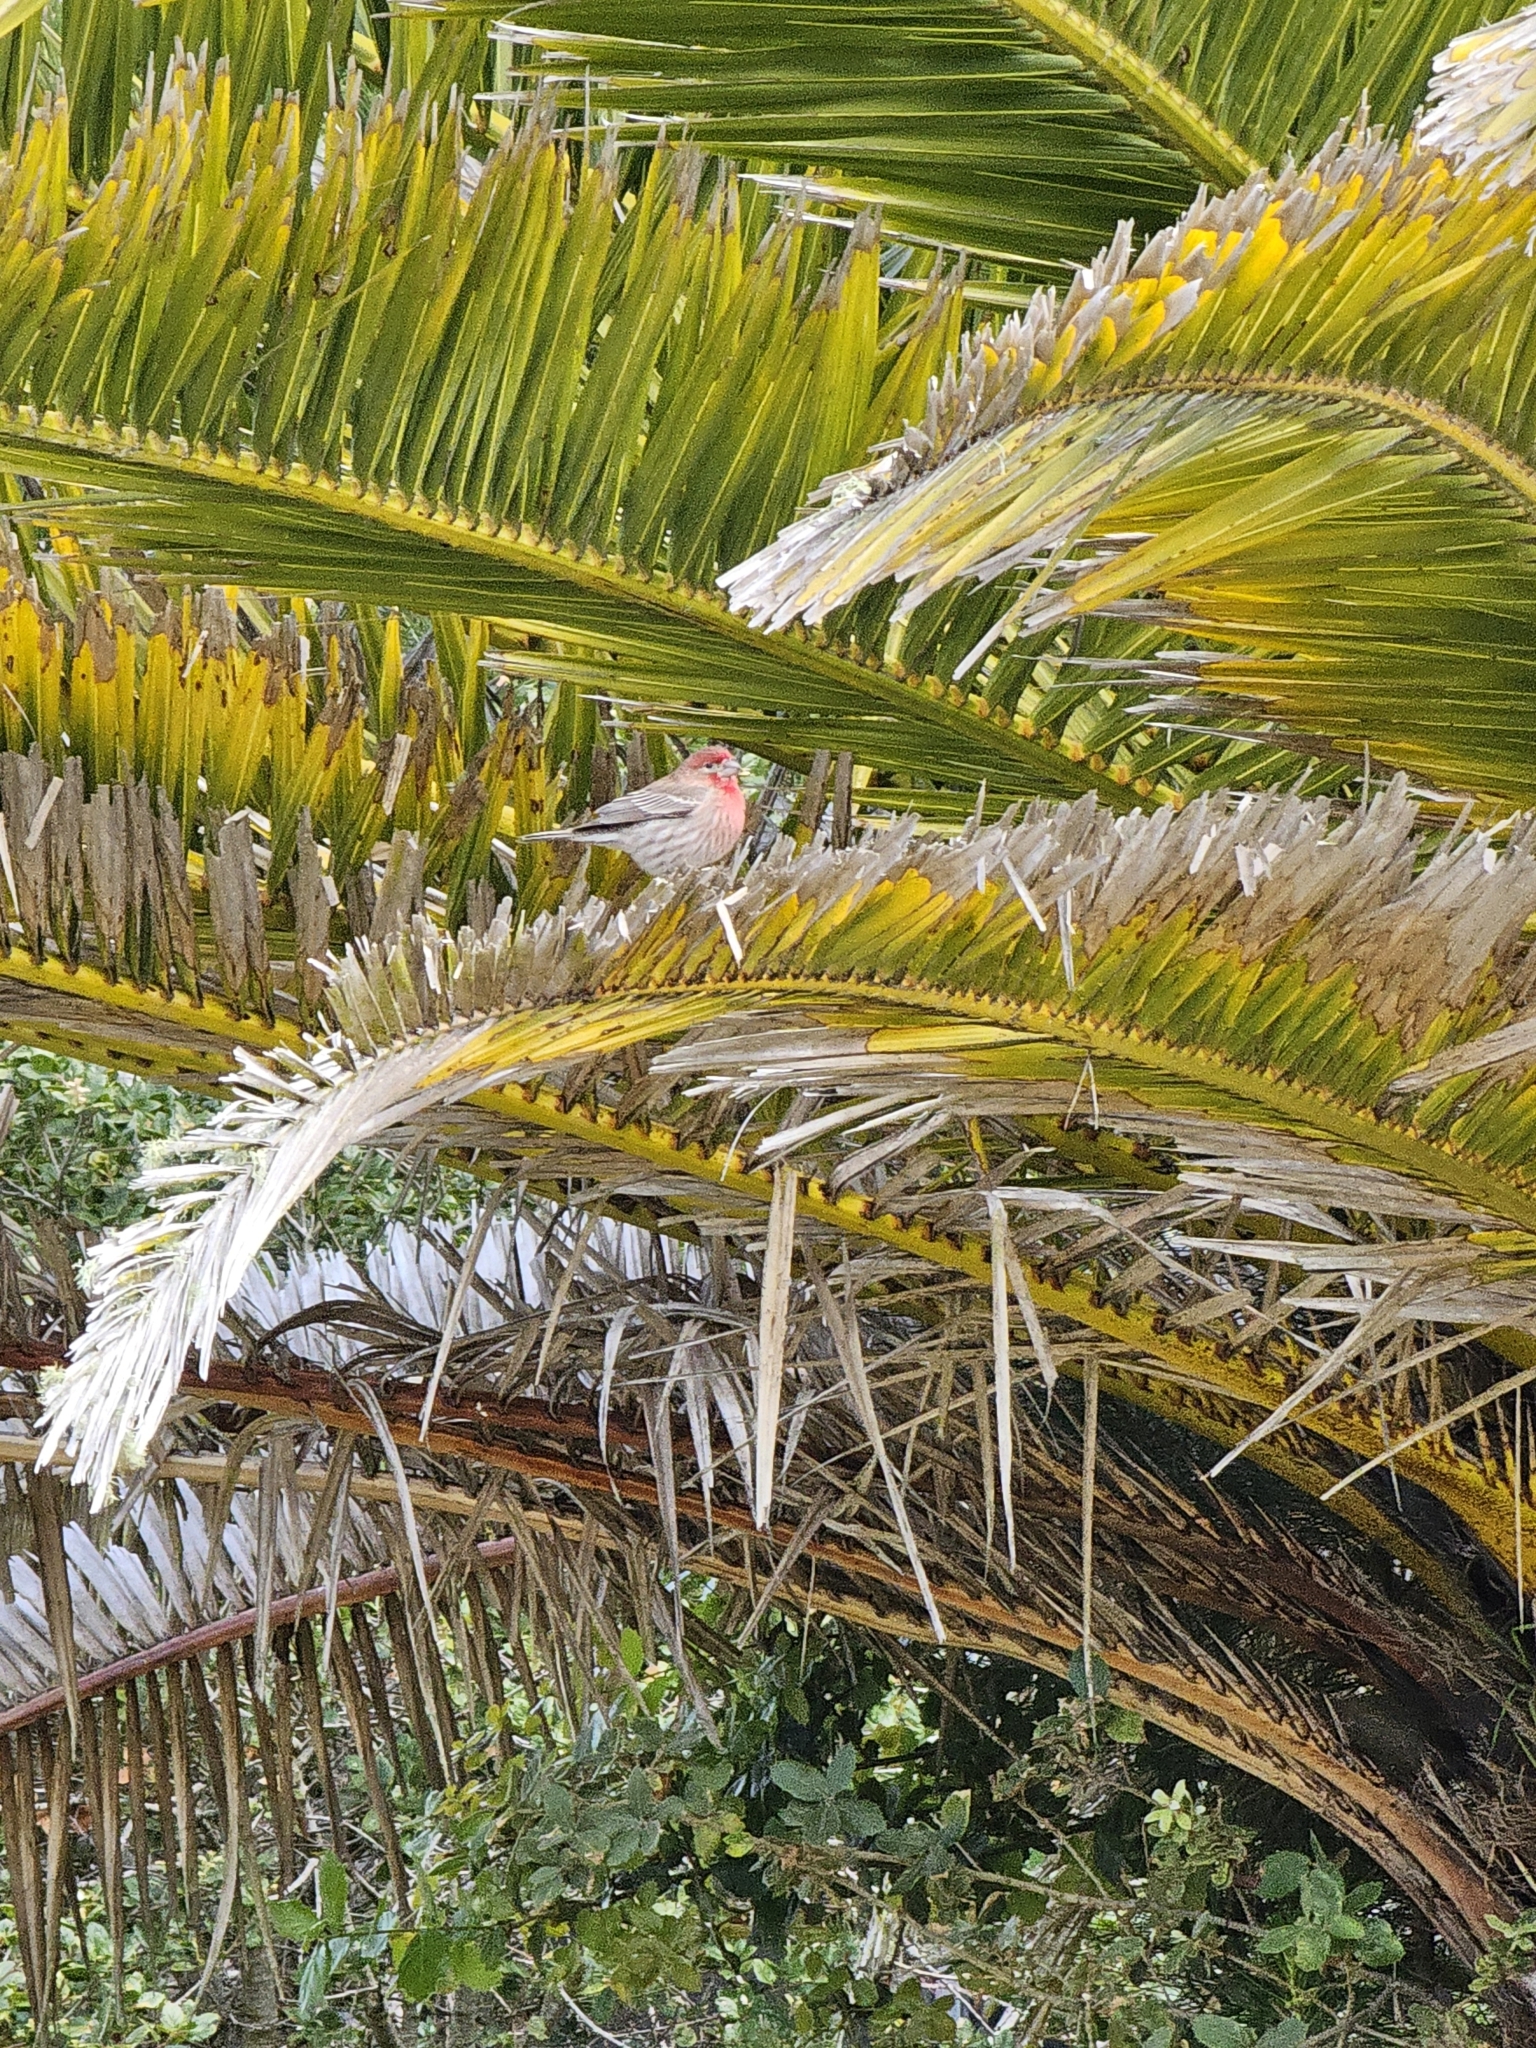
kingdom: Animalia
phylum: Chordata
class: Aves
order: Passeriformes
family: Fringillidae
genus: Haemorhous
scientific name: Haemorhous mexicanus
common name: House finch
